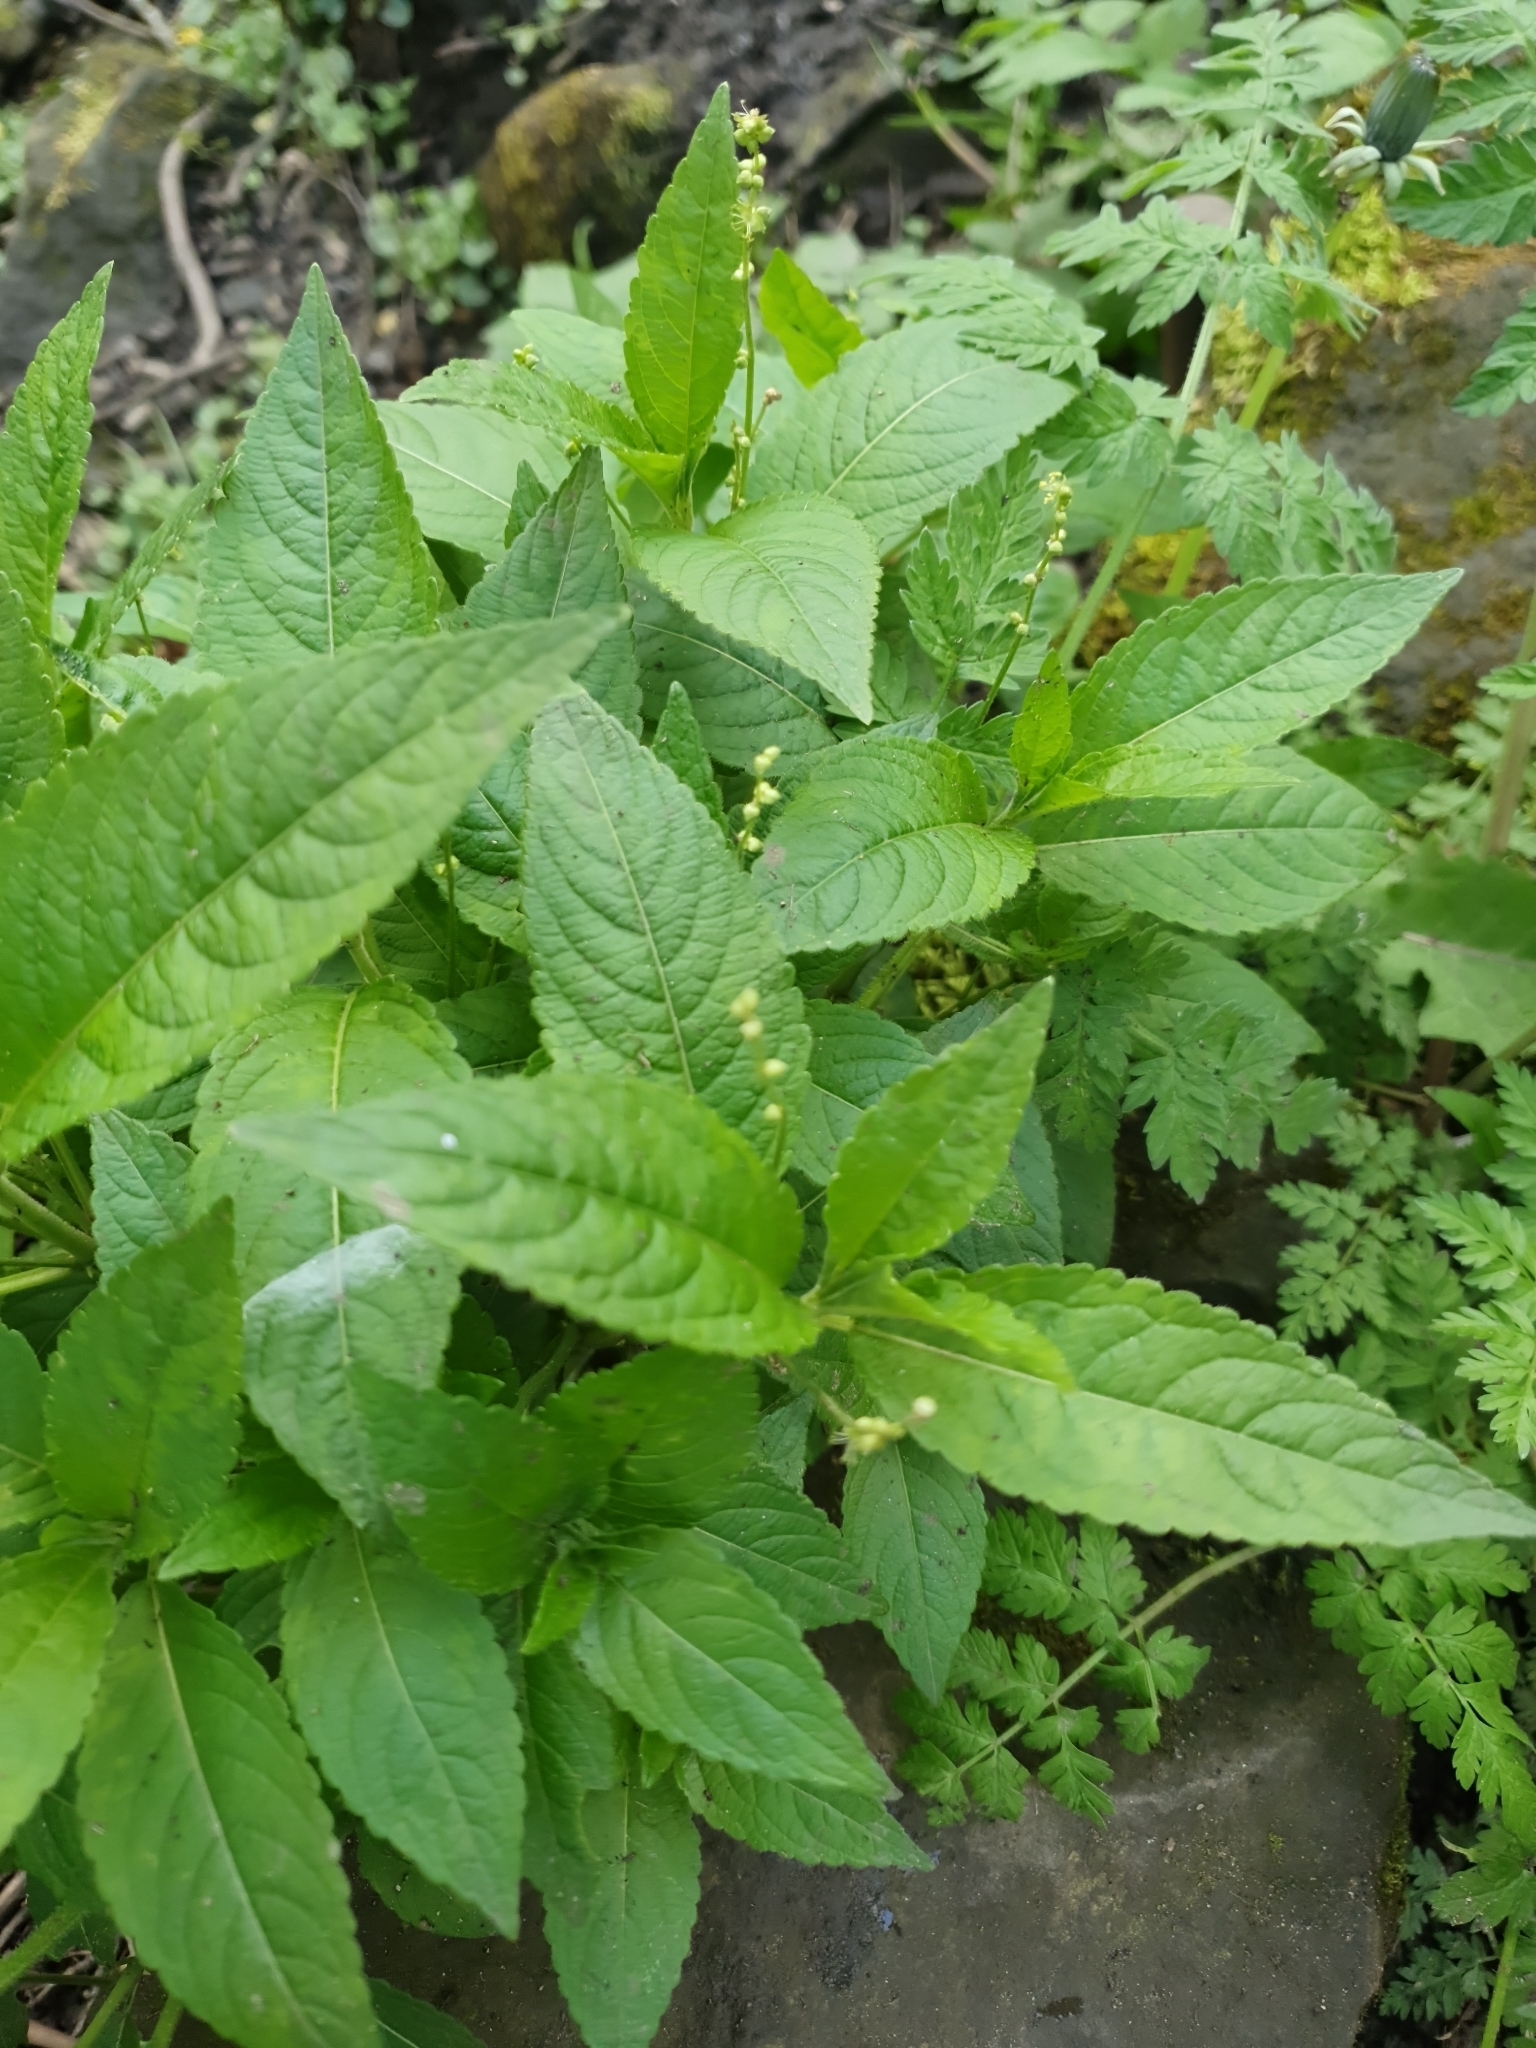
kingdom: Plantae
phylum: Tracheophyta
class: Magnoliopsida
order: Malpighiales
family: Euphorbiaceae
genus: Mercurialis
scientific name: Mercurialis perennis
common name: Dog mercury
